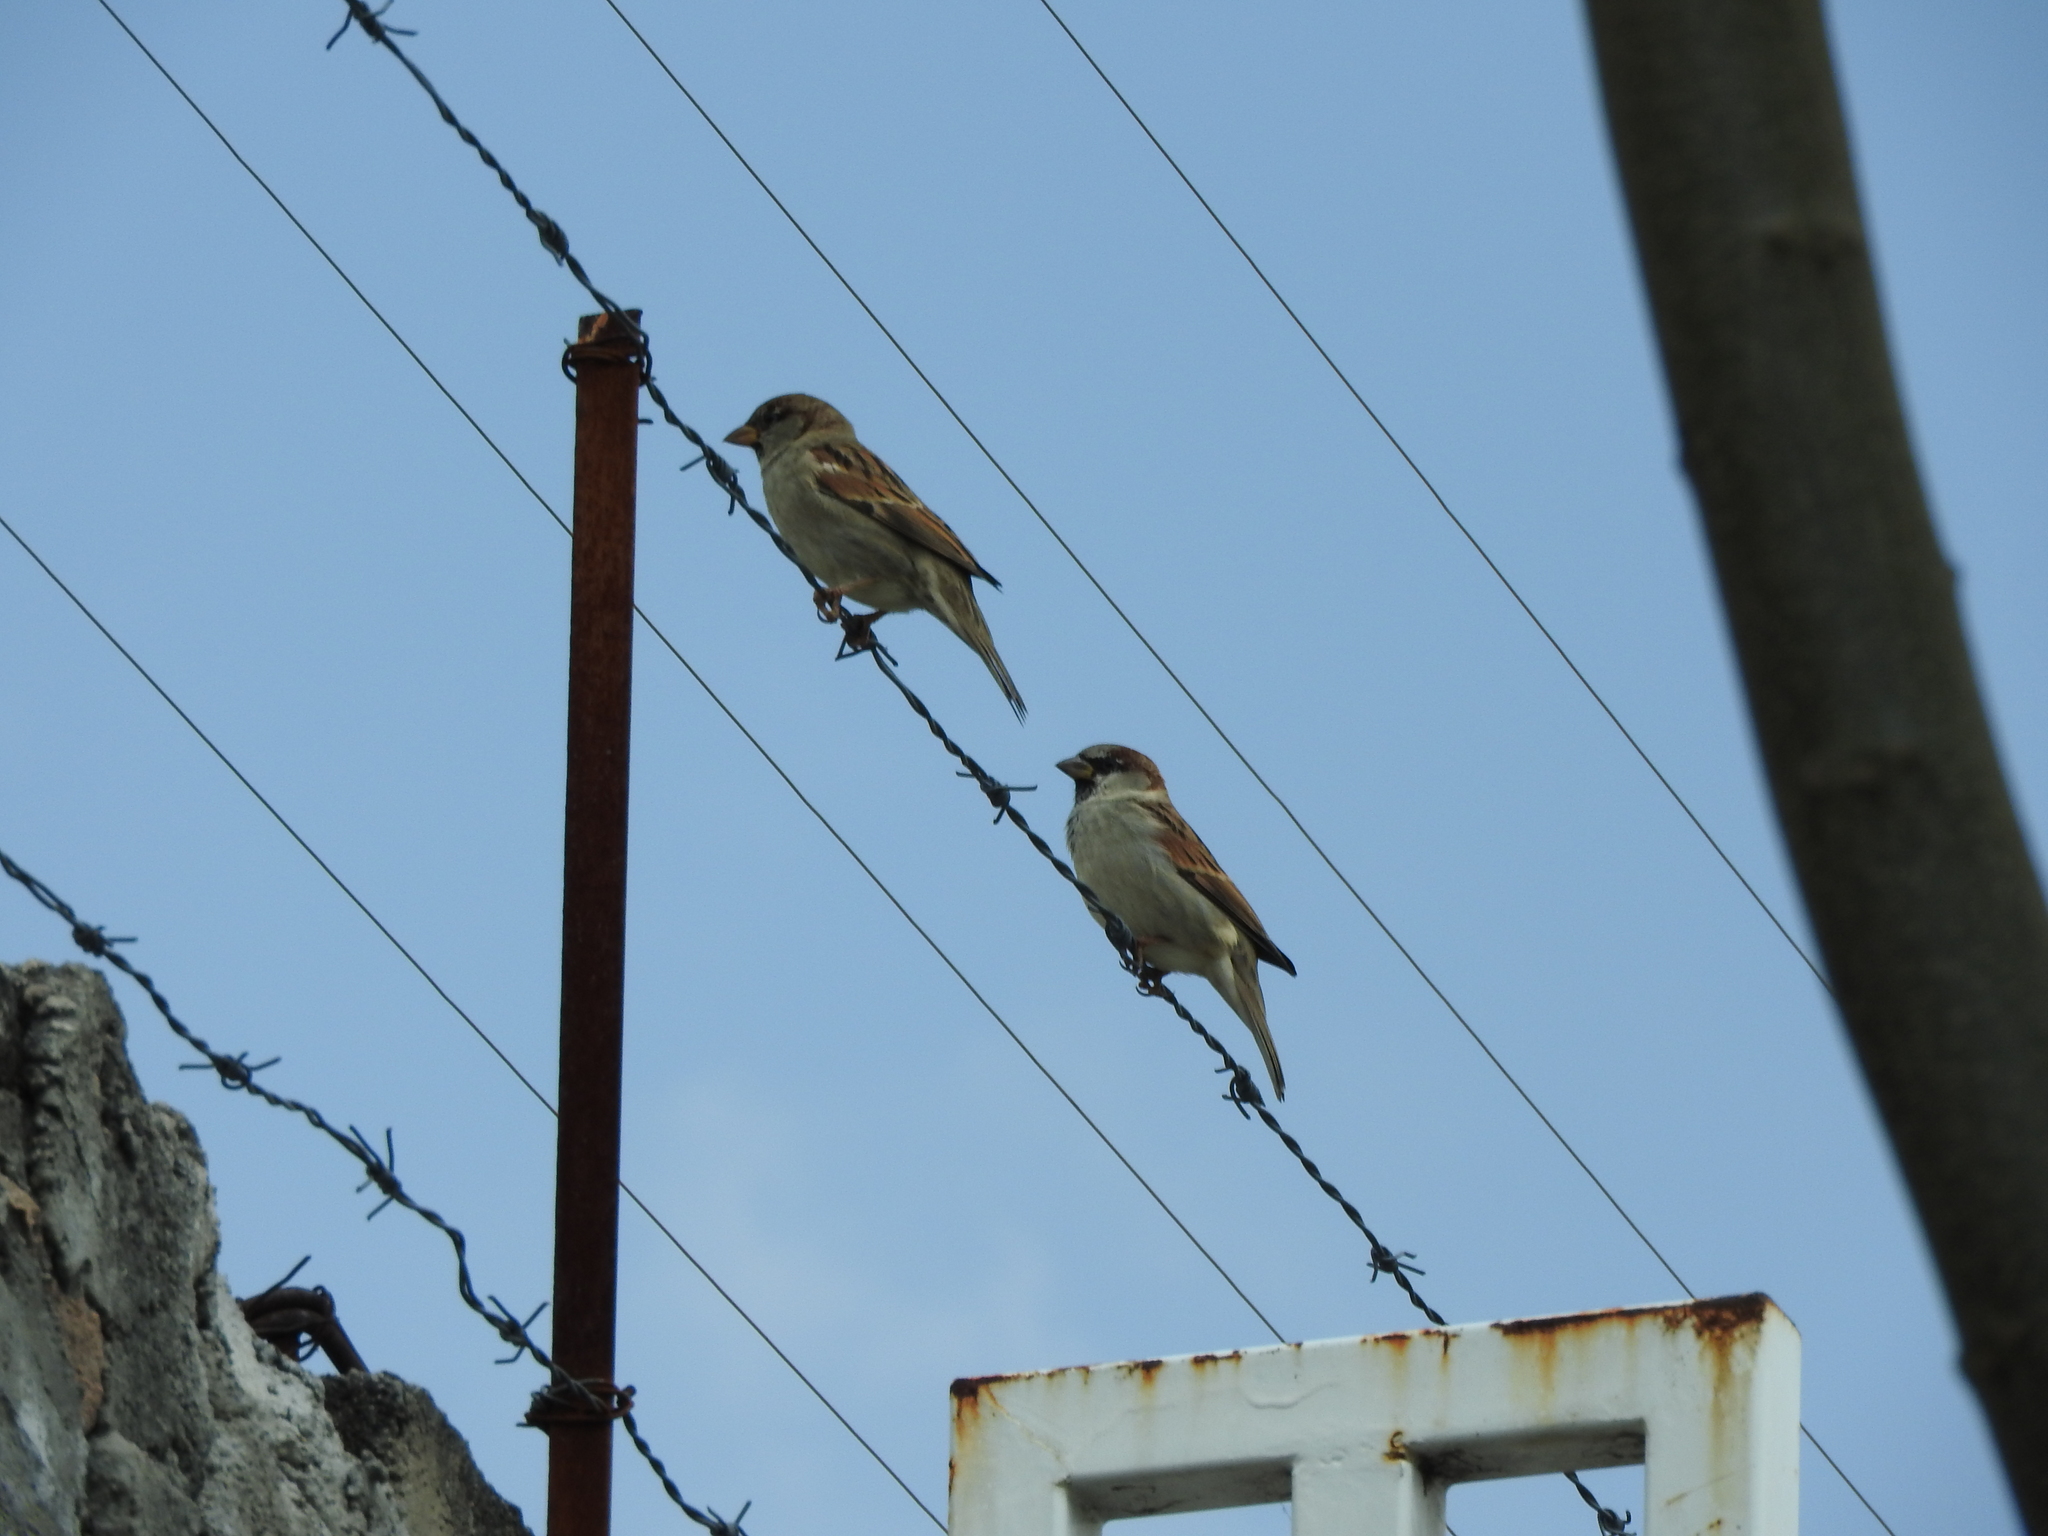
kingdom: Animalia
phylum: Chordata
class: Aves
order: Passeriformes
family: Passeridae
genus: Passer
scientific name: Passer domesticus
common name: House sparrow
